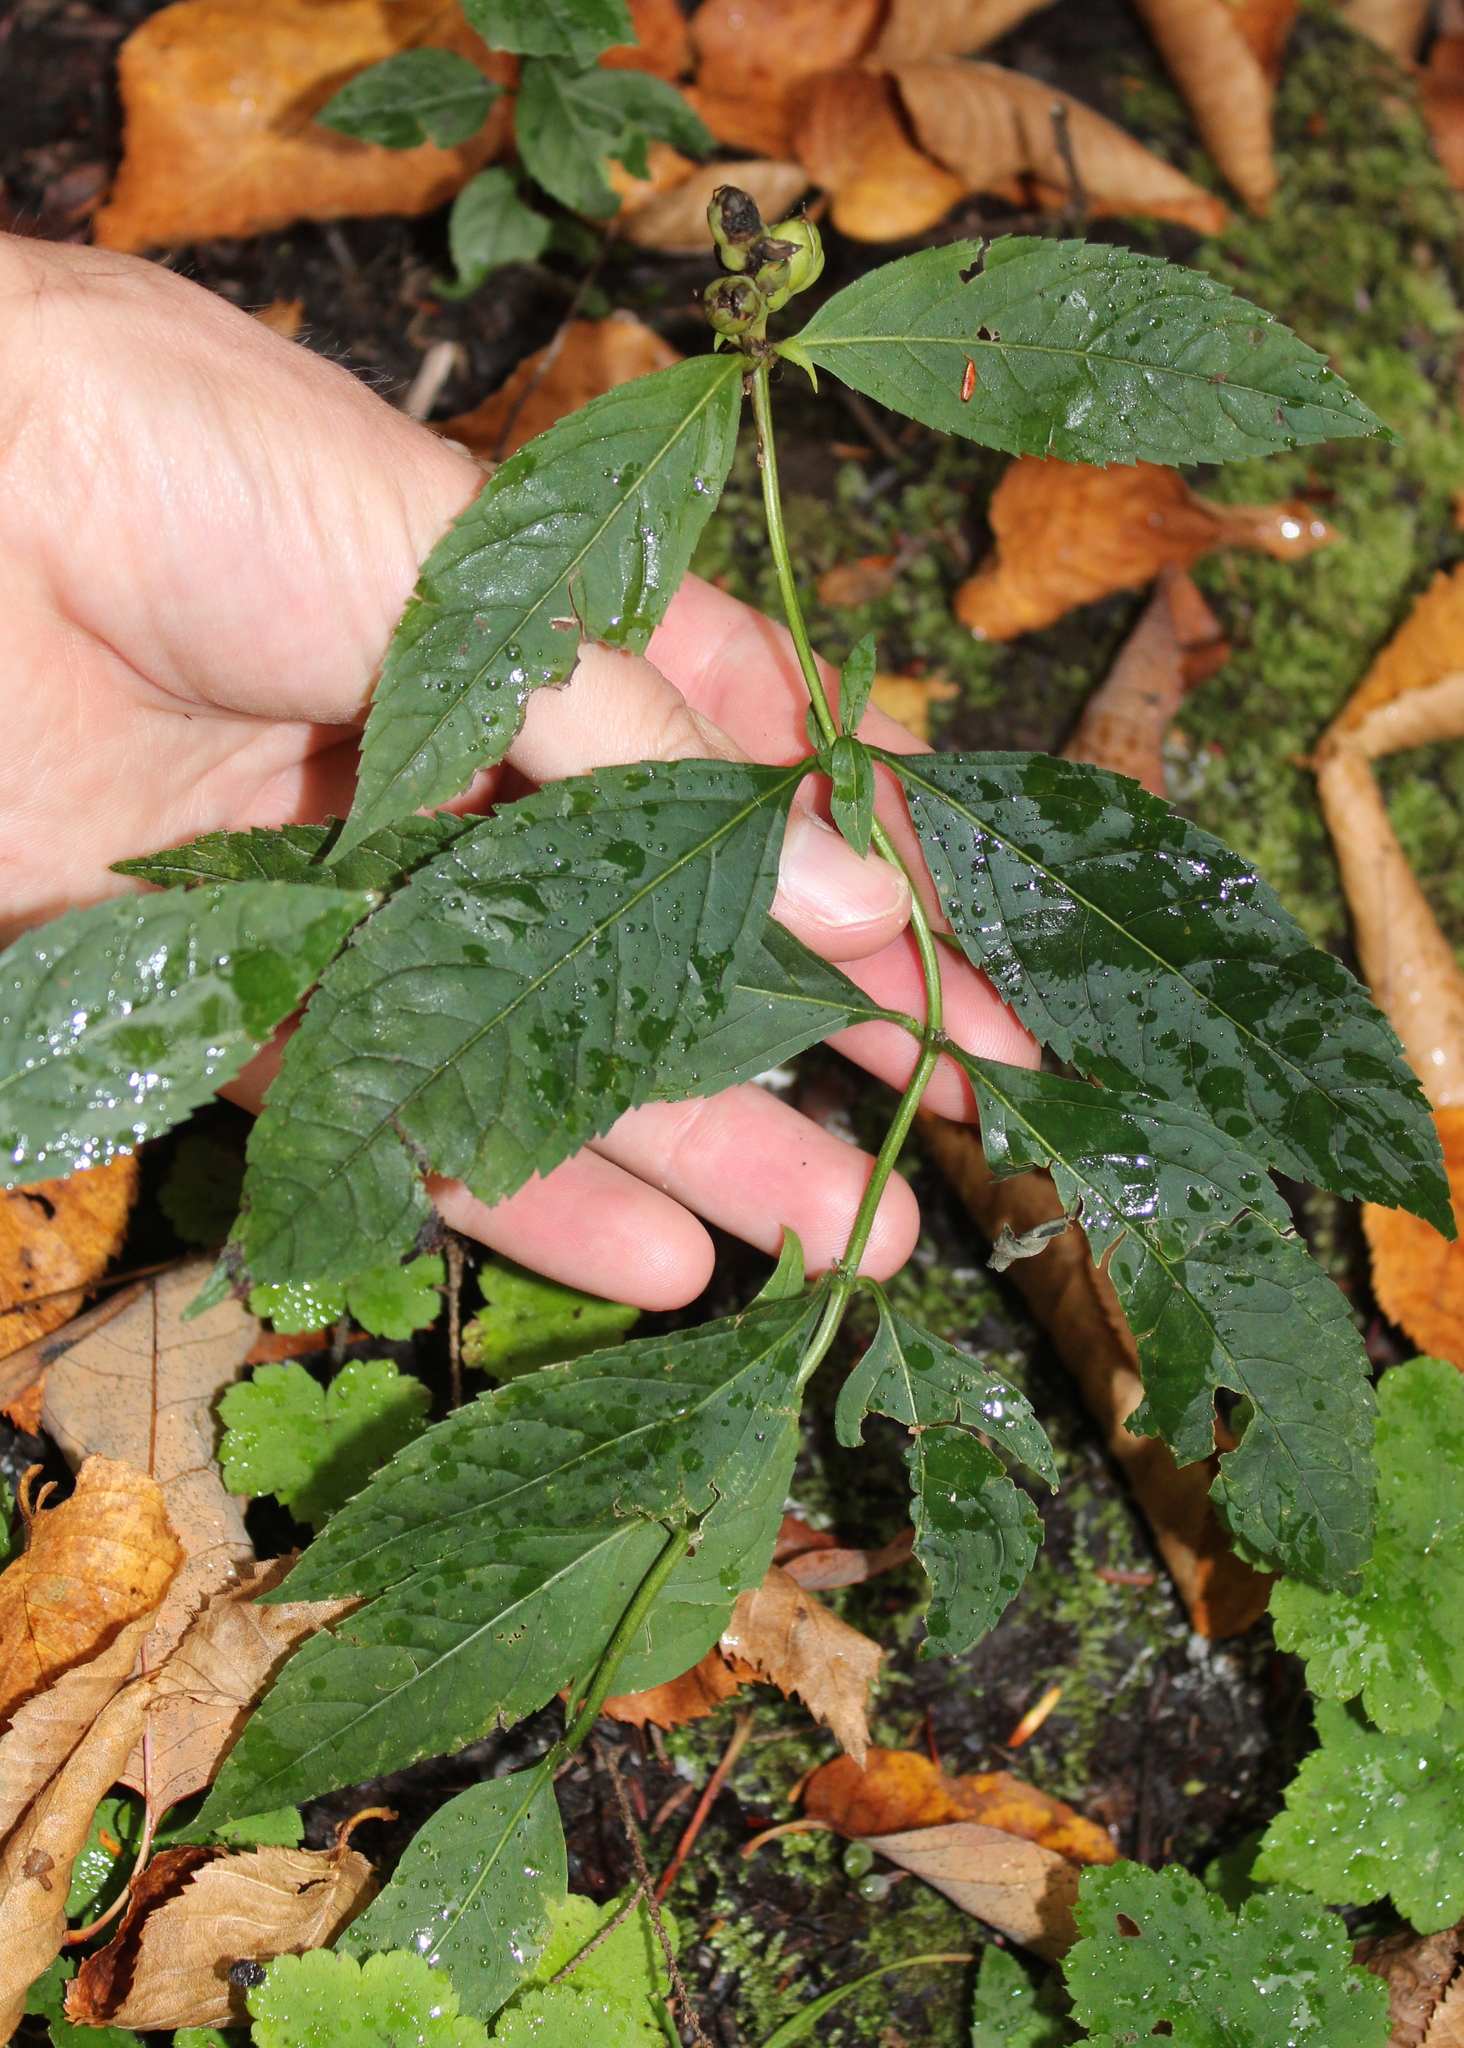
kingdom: Plantae
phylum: Tracheophyta
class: Magnoliopsida
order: Lamiales
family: Plantaginaceae
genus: Chelone
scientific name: Chelone glabra
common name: Snakehead
